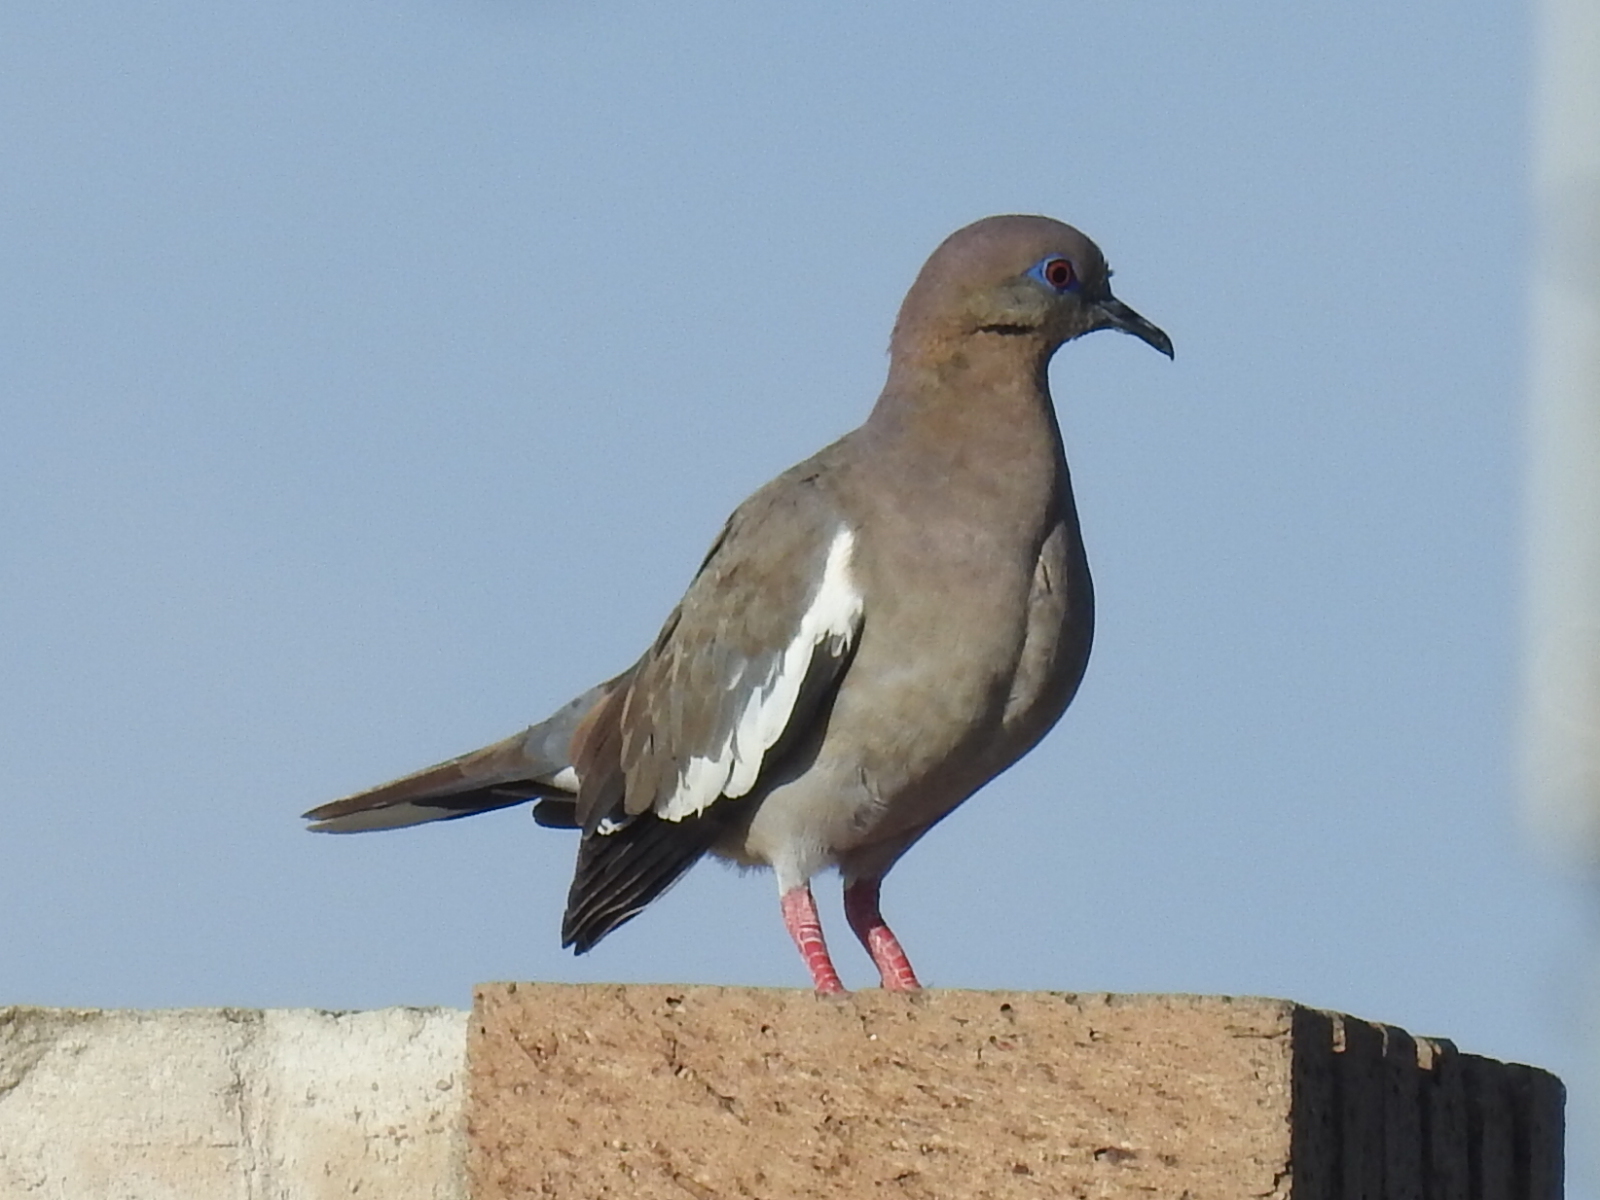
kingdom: Animalia
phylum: Chordata
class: Aves
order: Columbiformes
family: Columbidae
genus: Zenaida
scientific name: Zenaida asiatica
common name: White-winged dove
